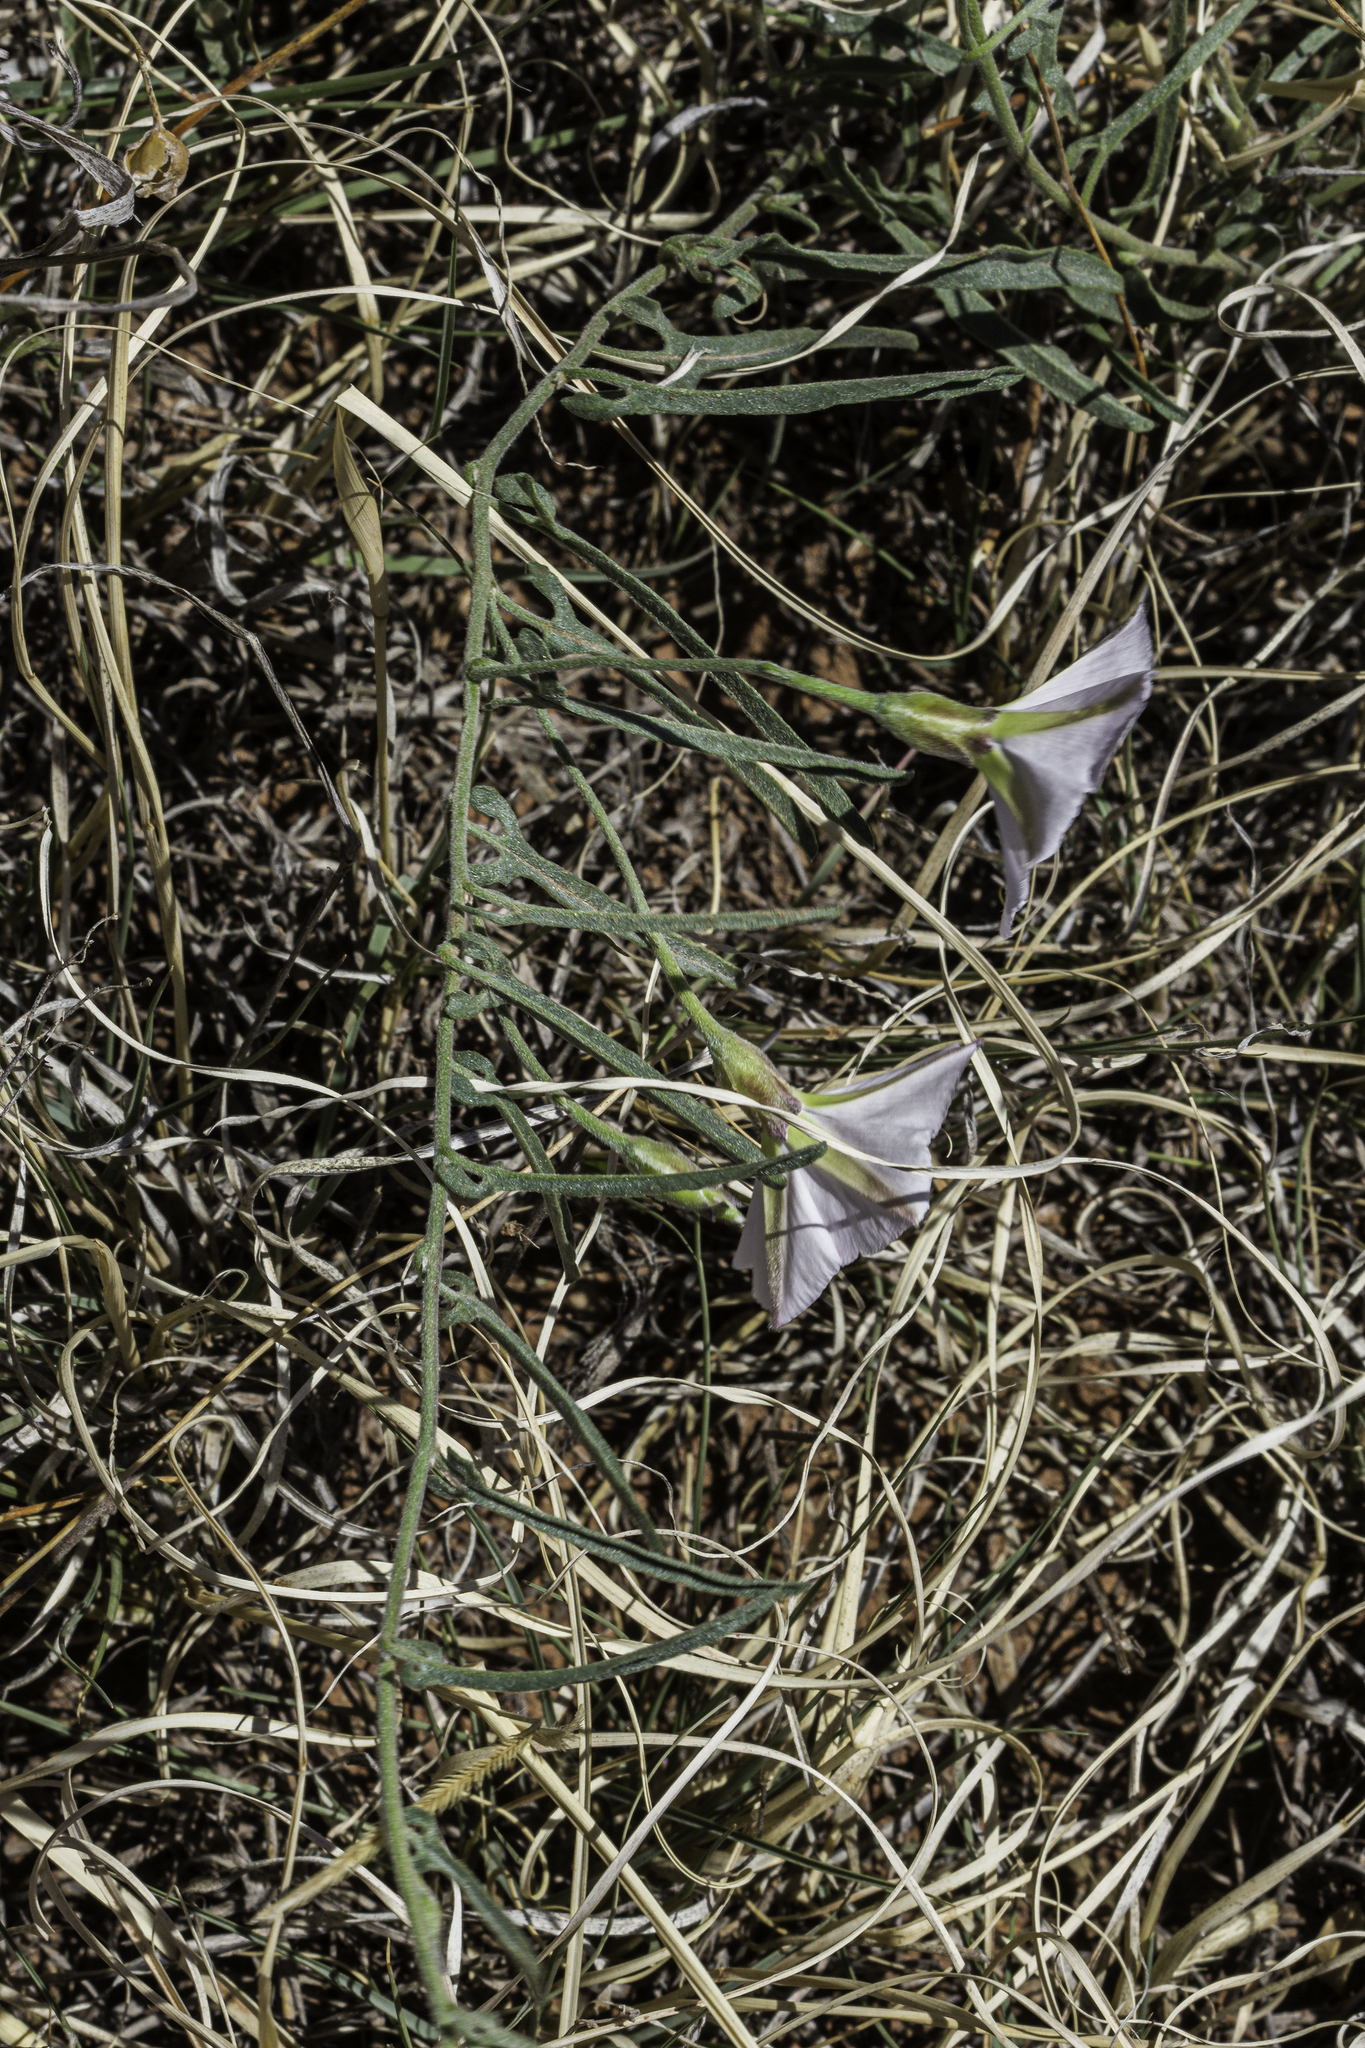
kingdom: Plantae
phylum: Tracheophyta
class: Magnoliopsida
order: Solanales
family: Convolvulaceae
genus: Convolvulus
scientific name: Convolvulus equitans
